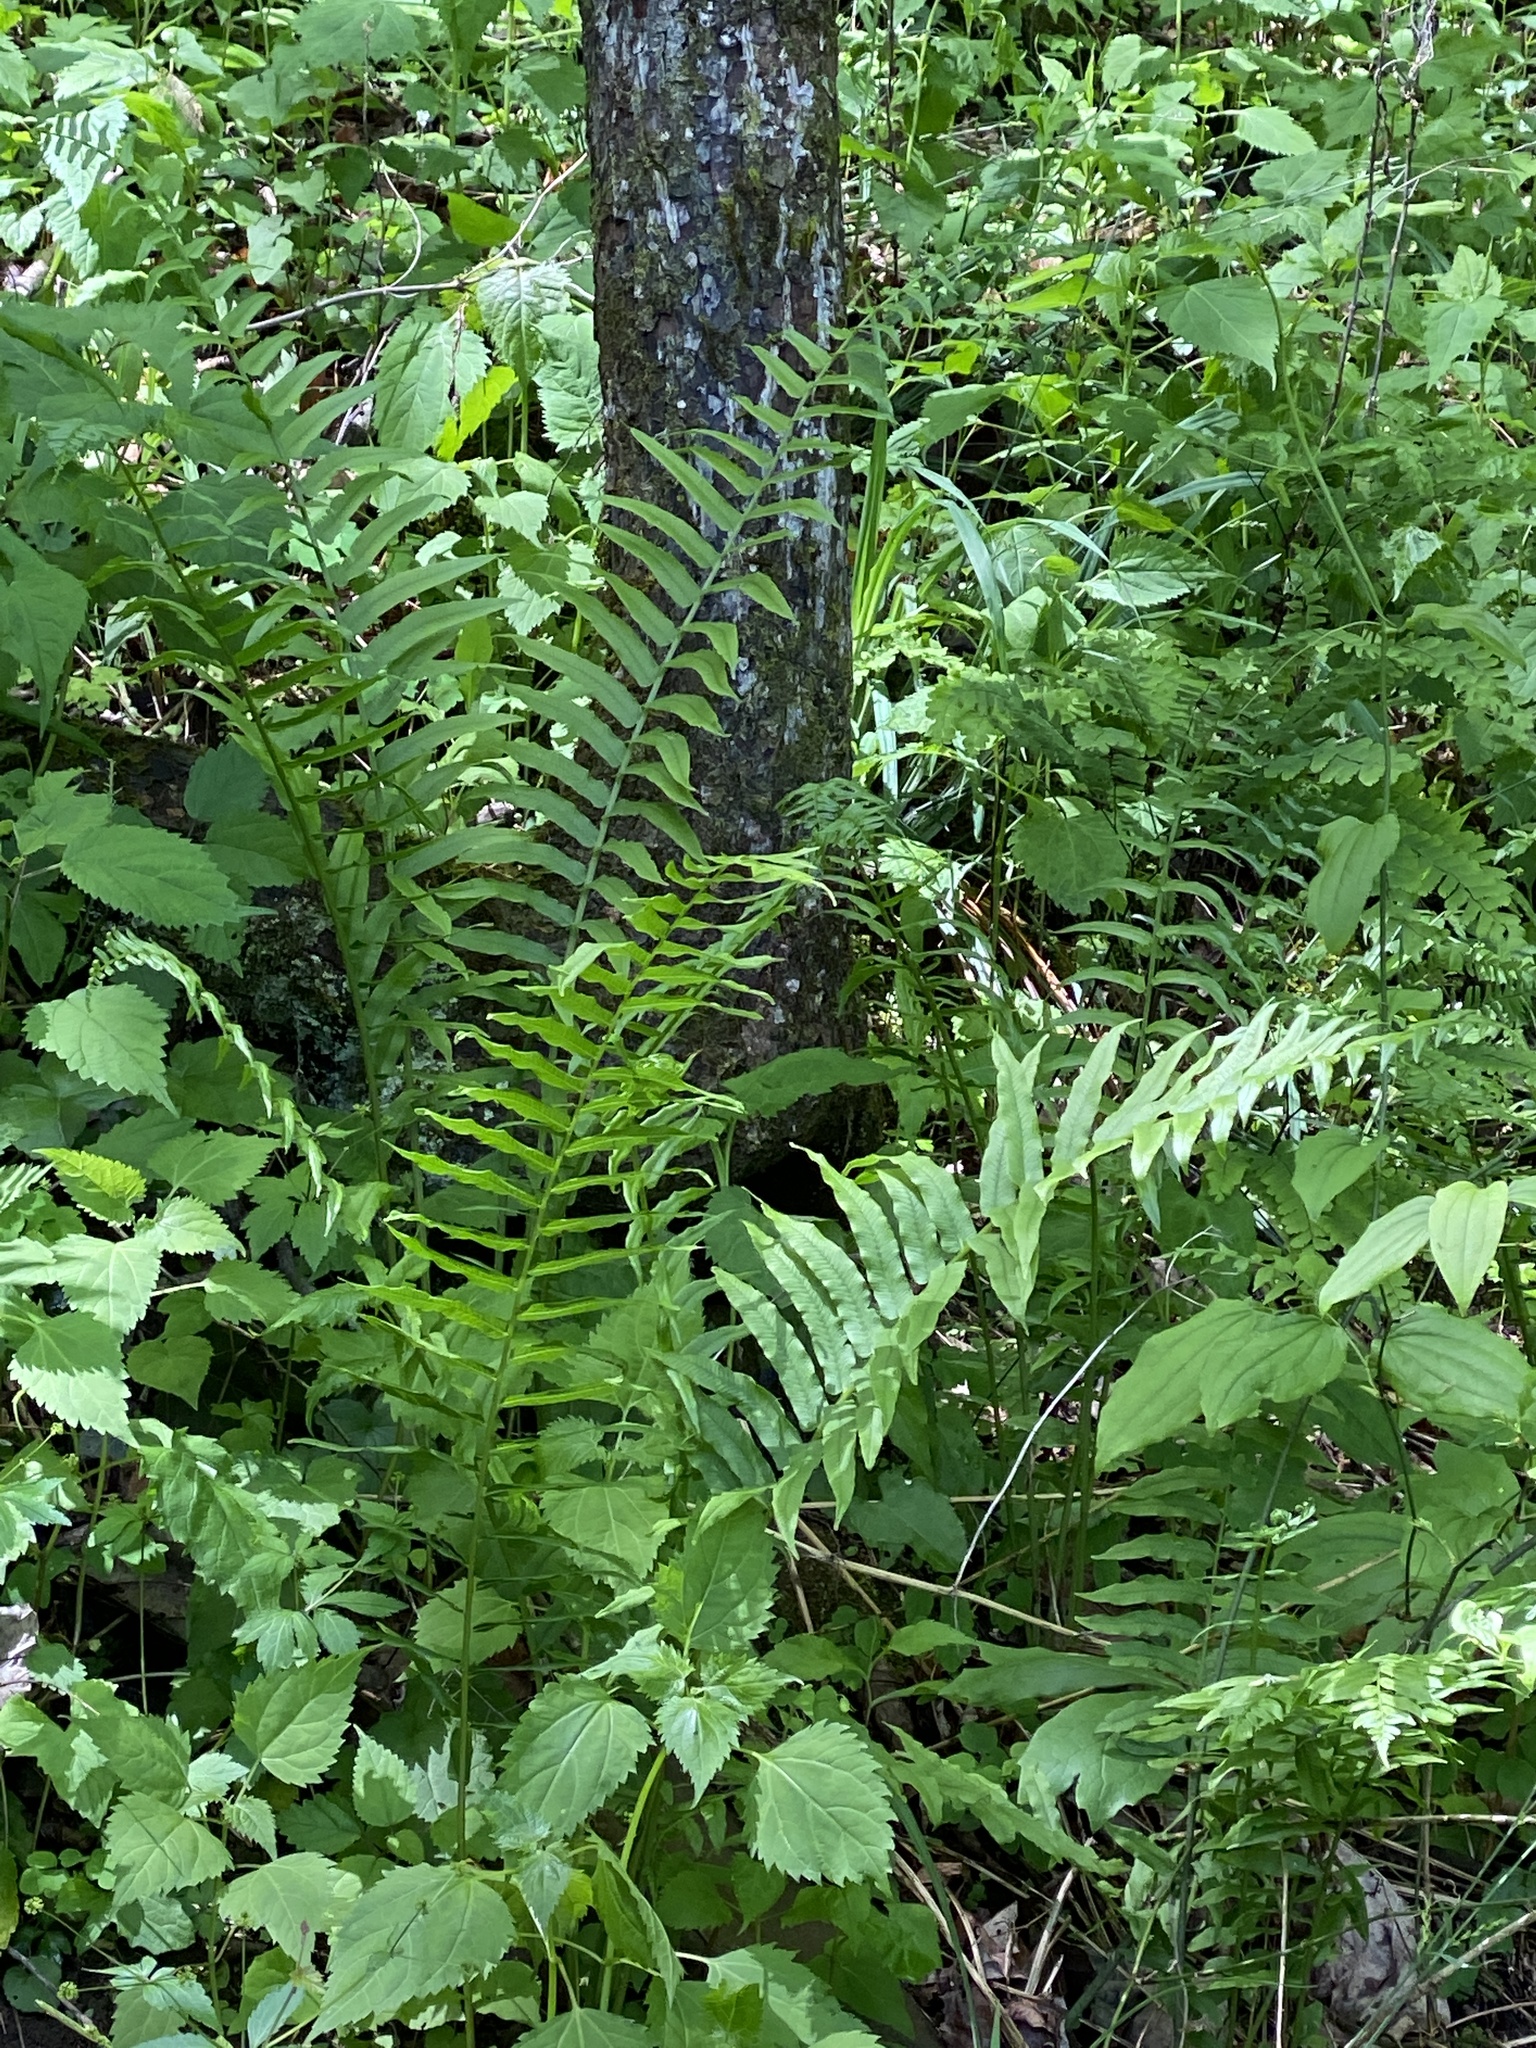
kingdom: Plantae
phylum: Tracheophyta
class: Polypodiopsida
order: Polypodiales
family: Diplaziopsidaceae
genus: Homalosorus
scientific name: Homalosorus pycnocarpos
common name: Glade fern
